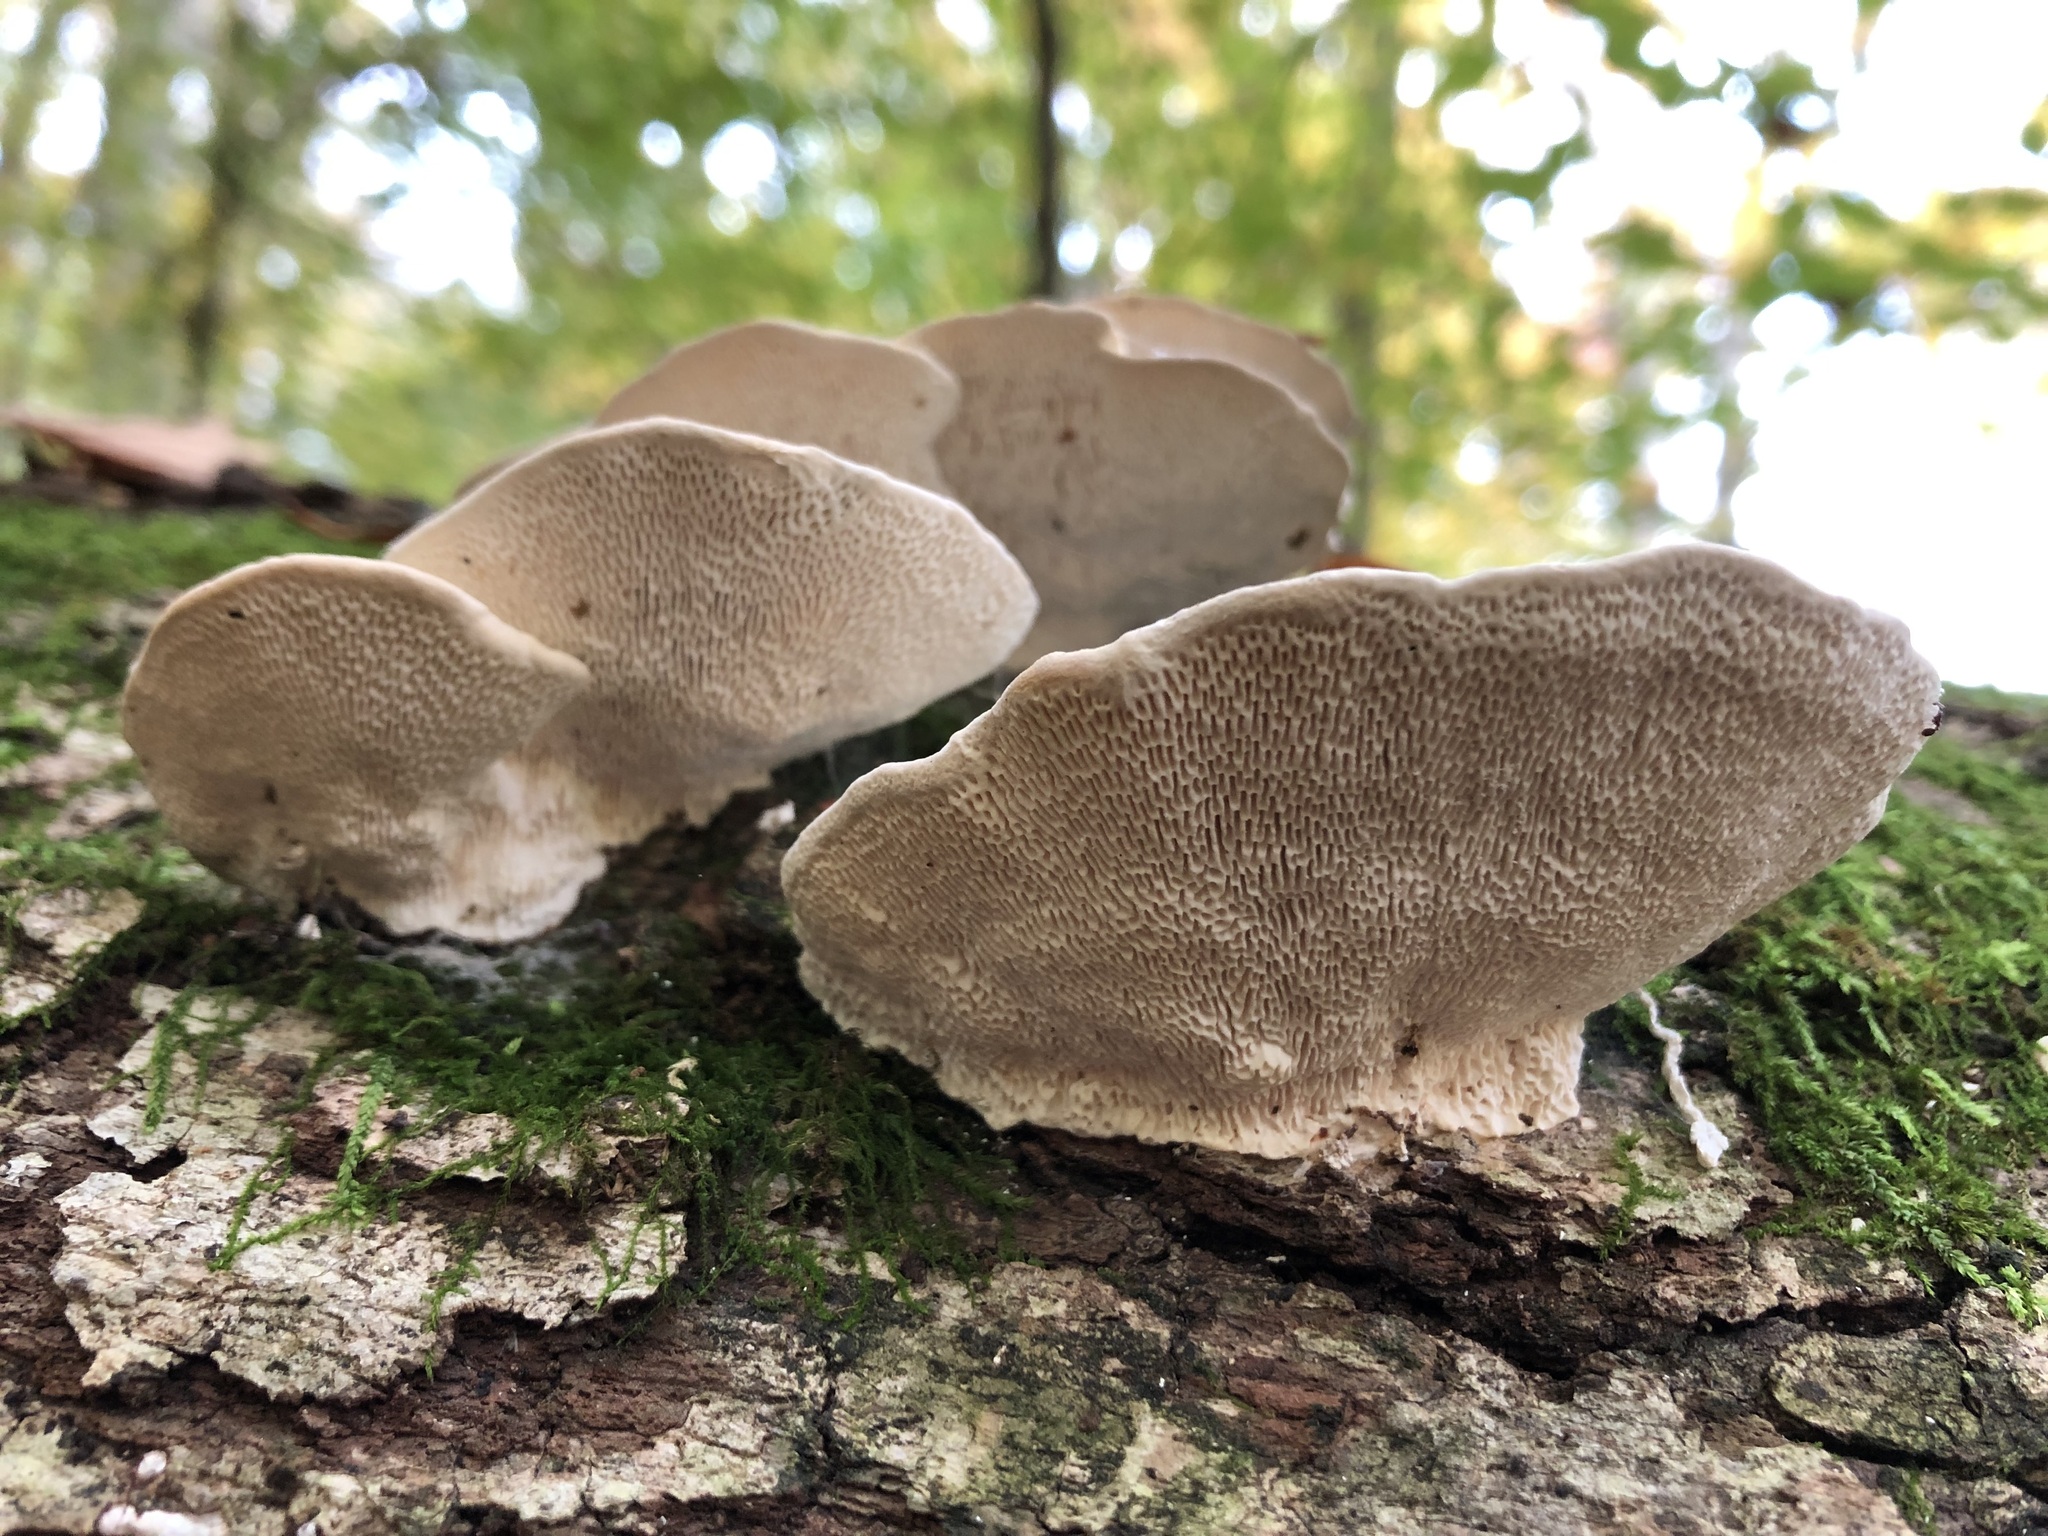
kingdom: Fungi
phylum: Basidiomycota
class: Agaricomycetes
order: Polyporales
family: Polyporaceae
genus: Trametes
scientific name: Trametes gibbosa
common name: Lumpy bracket
